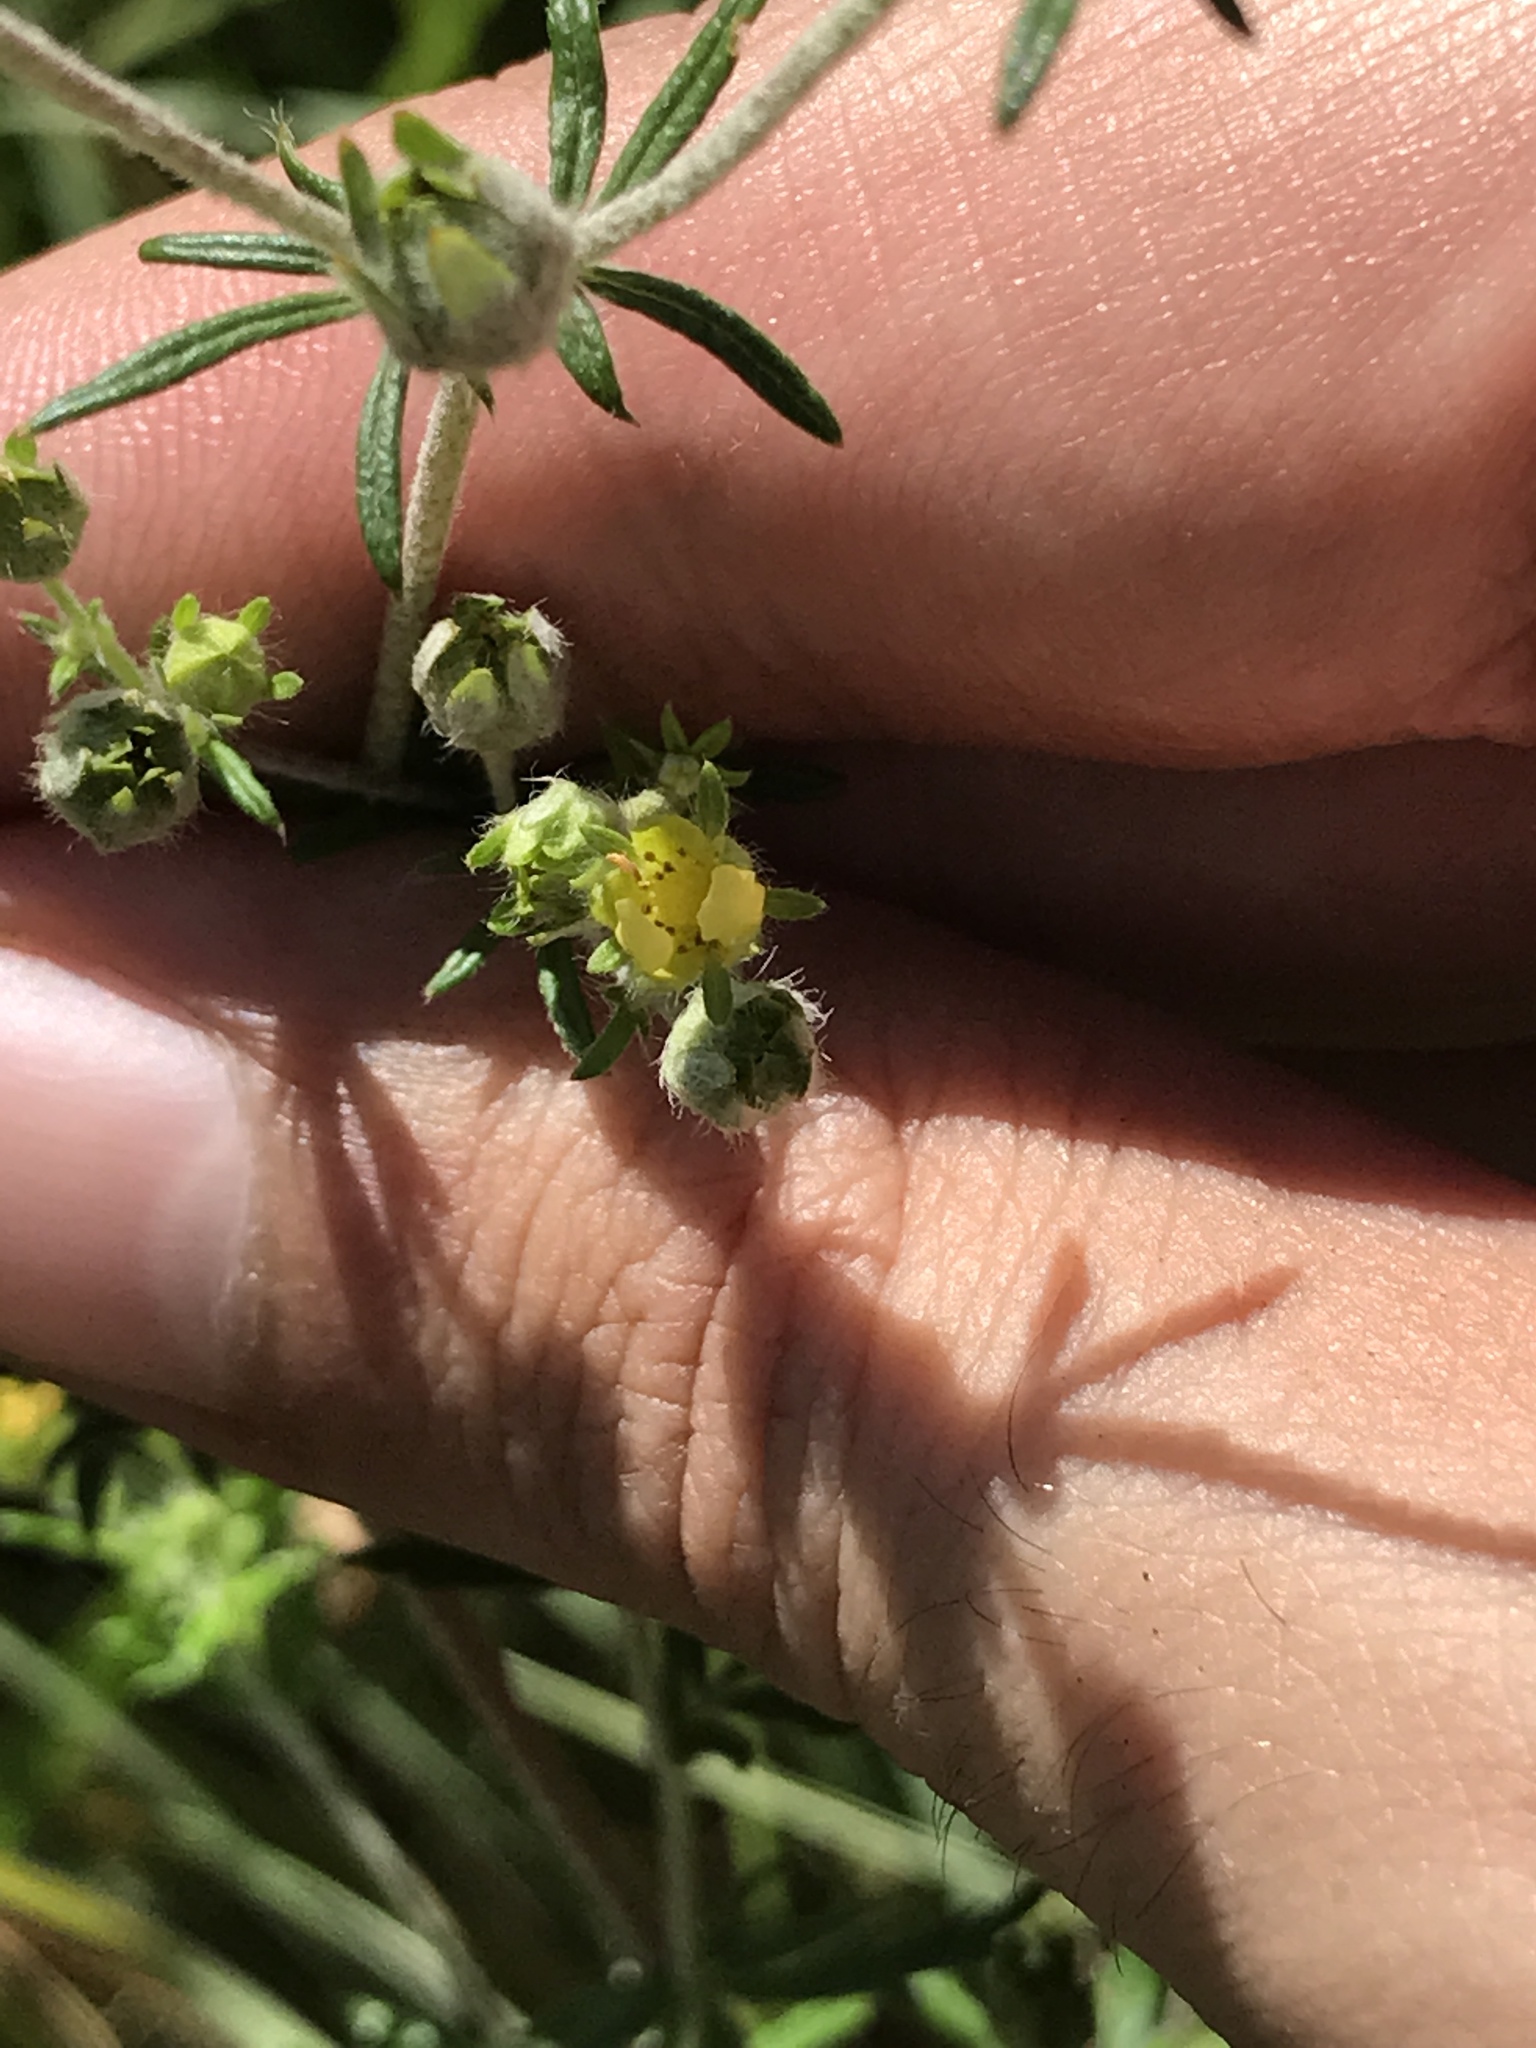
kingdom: Plantae
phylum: Tracheophyta
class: Magnoliopsida
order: Rosales
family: Rosaceae
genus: Potentilla
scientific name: Potentilla argentea
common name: Hoary cinquefoil
